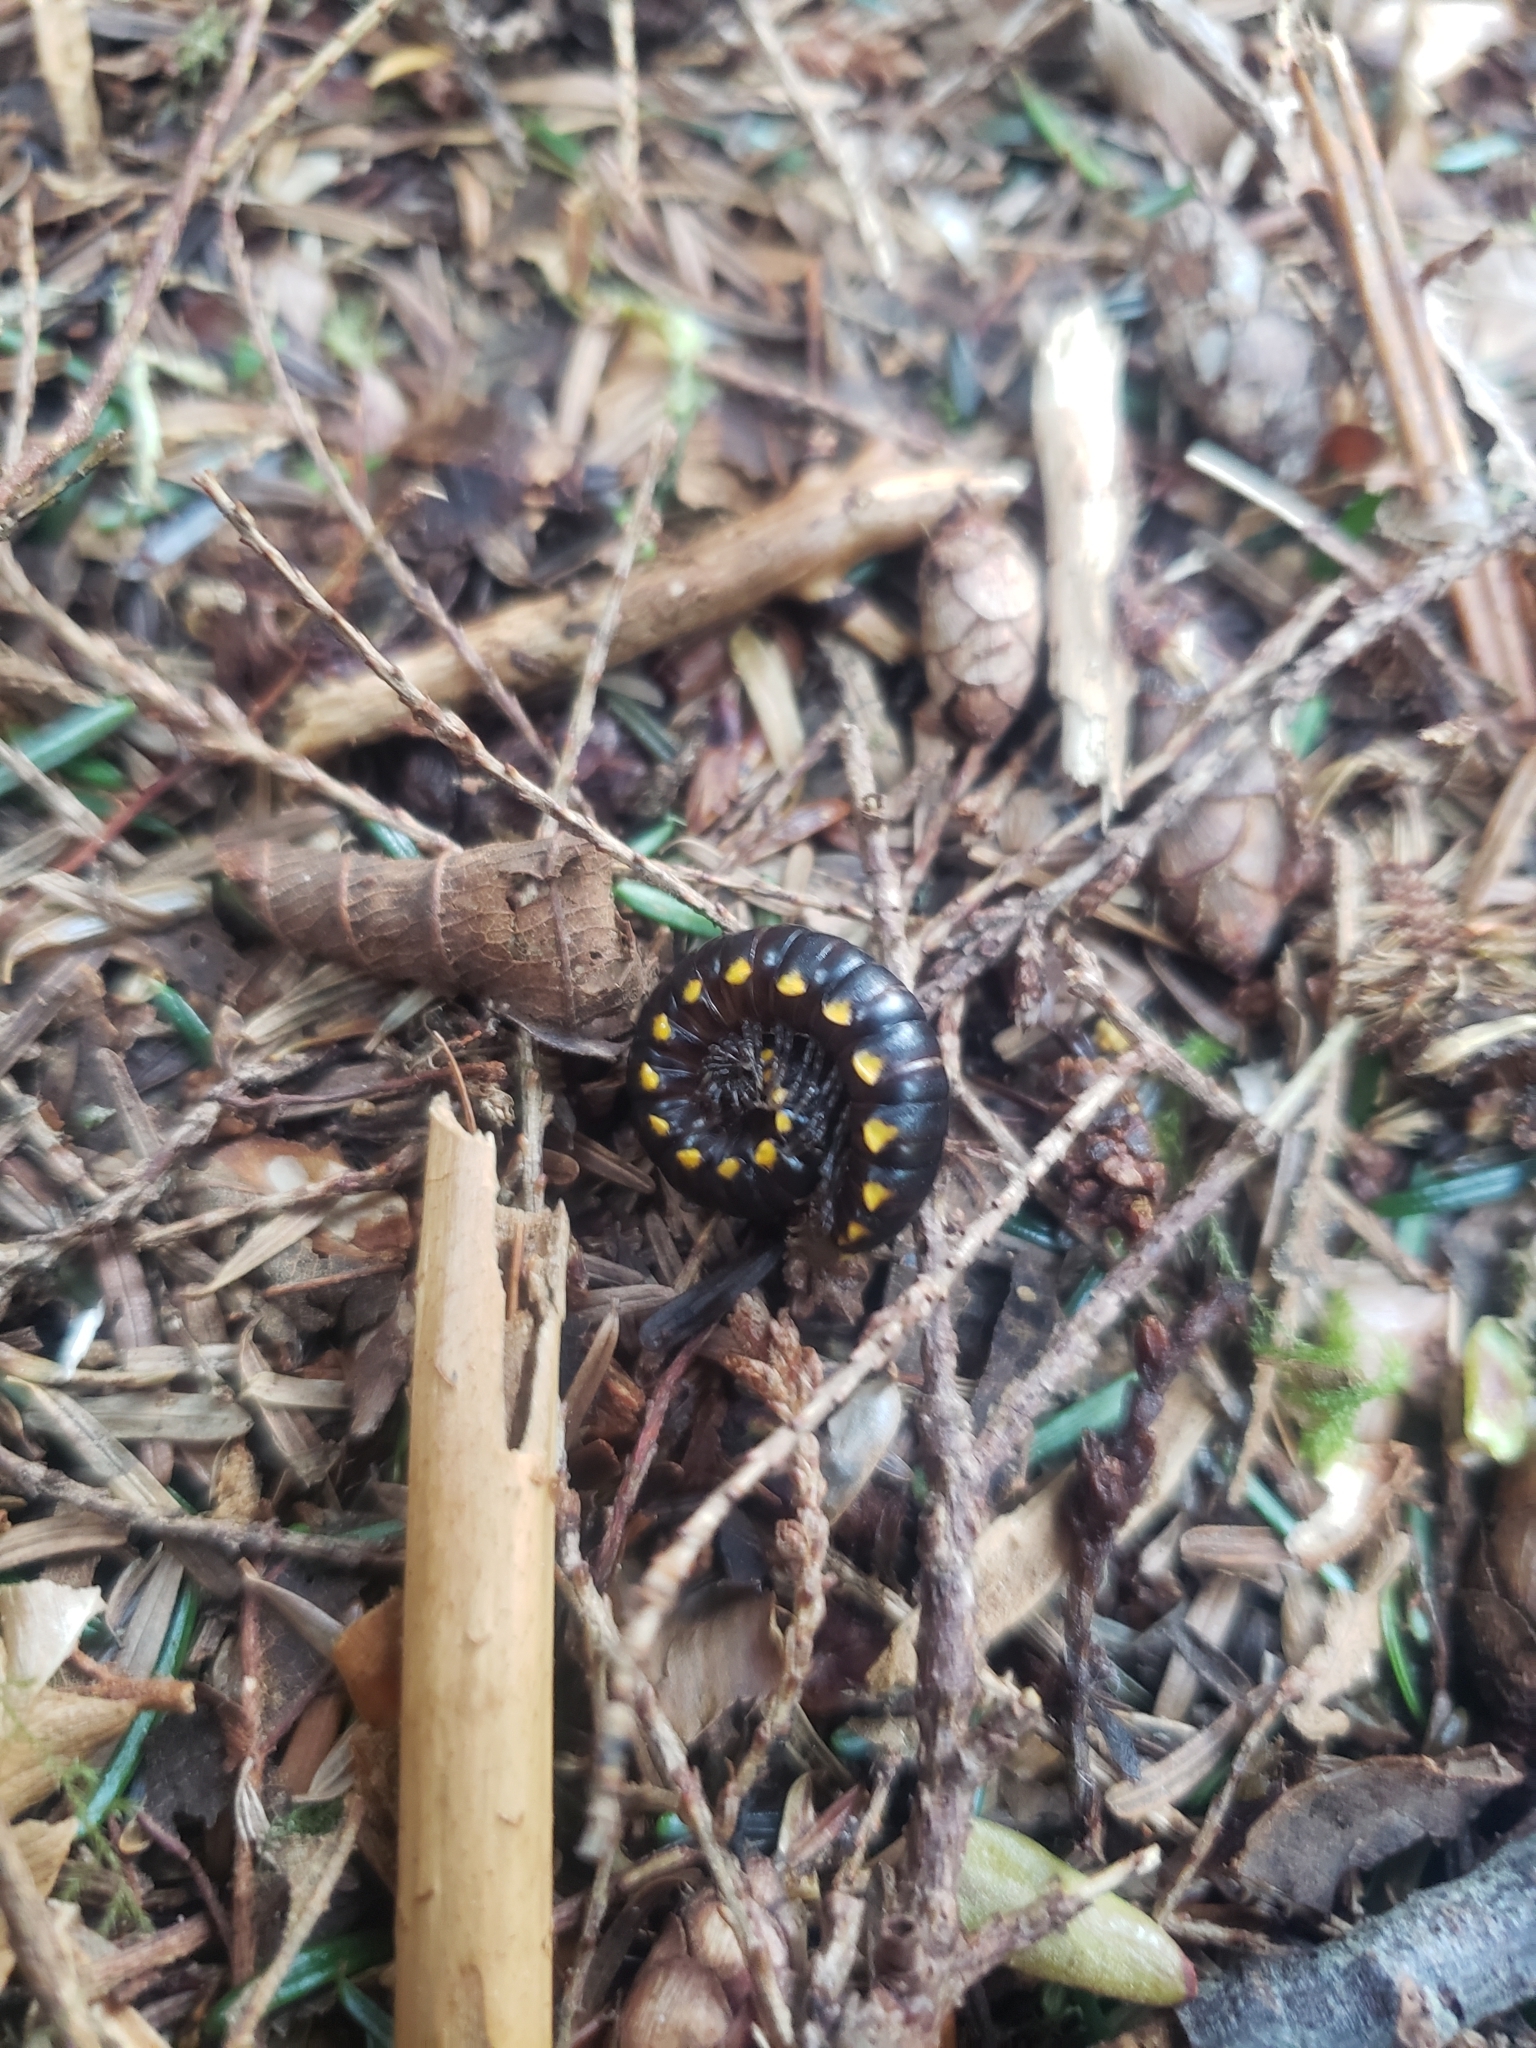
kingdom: Animalia
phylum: Arthropoda
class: Diplopoda
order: Polydesmida
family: Xystodesmidae
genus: Harpaphe
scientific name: Harpaphe haydeniana
